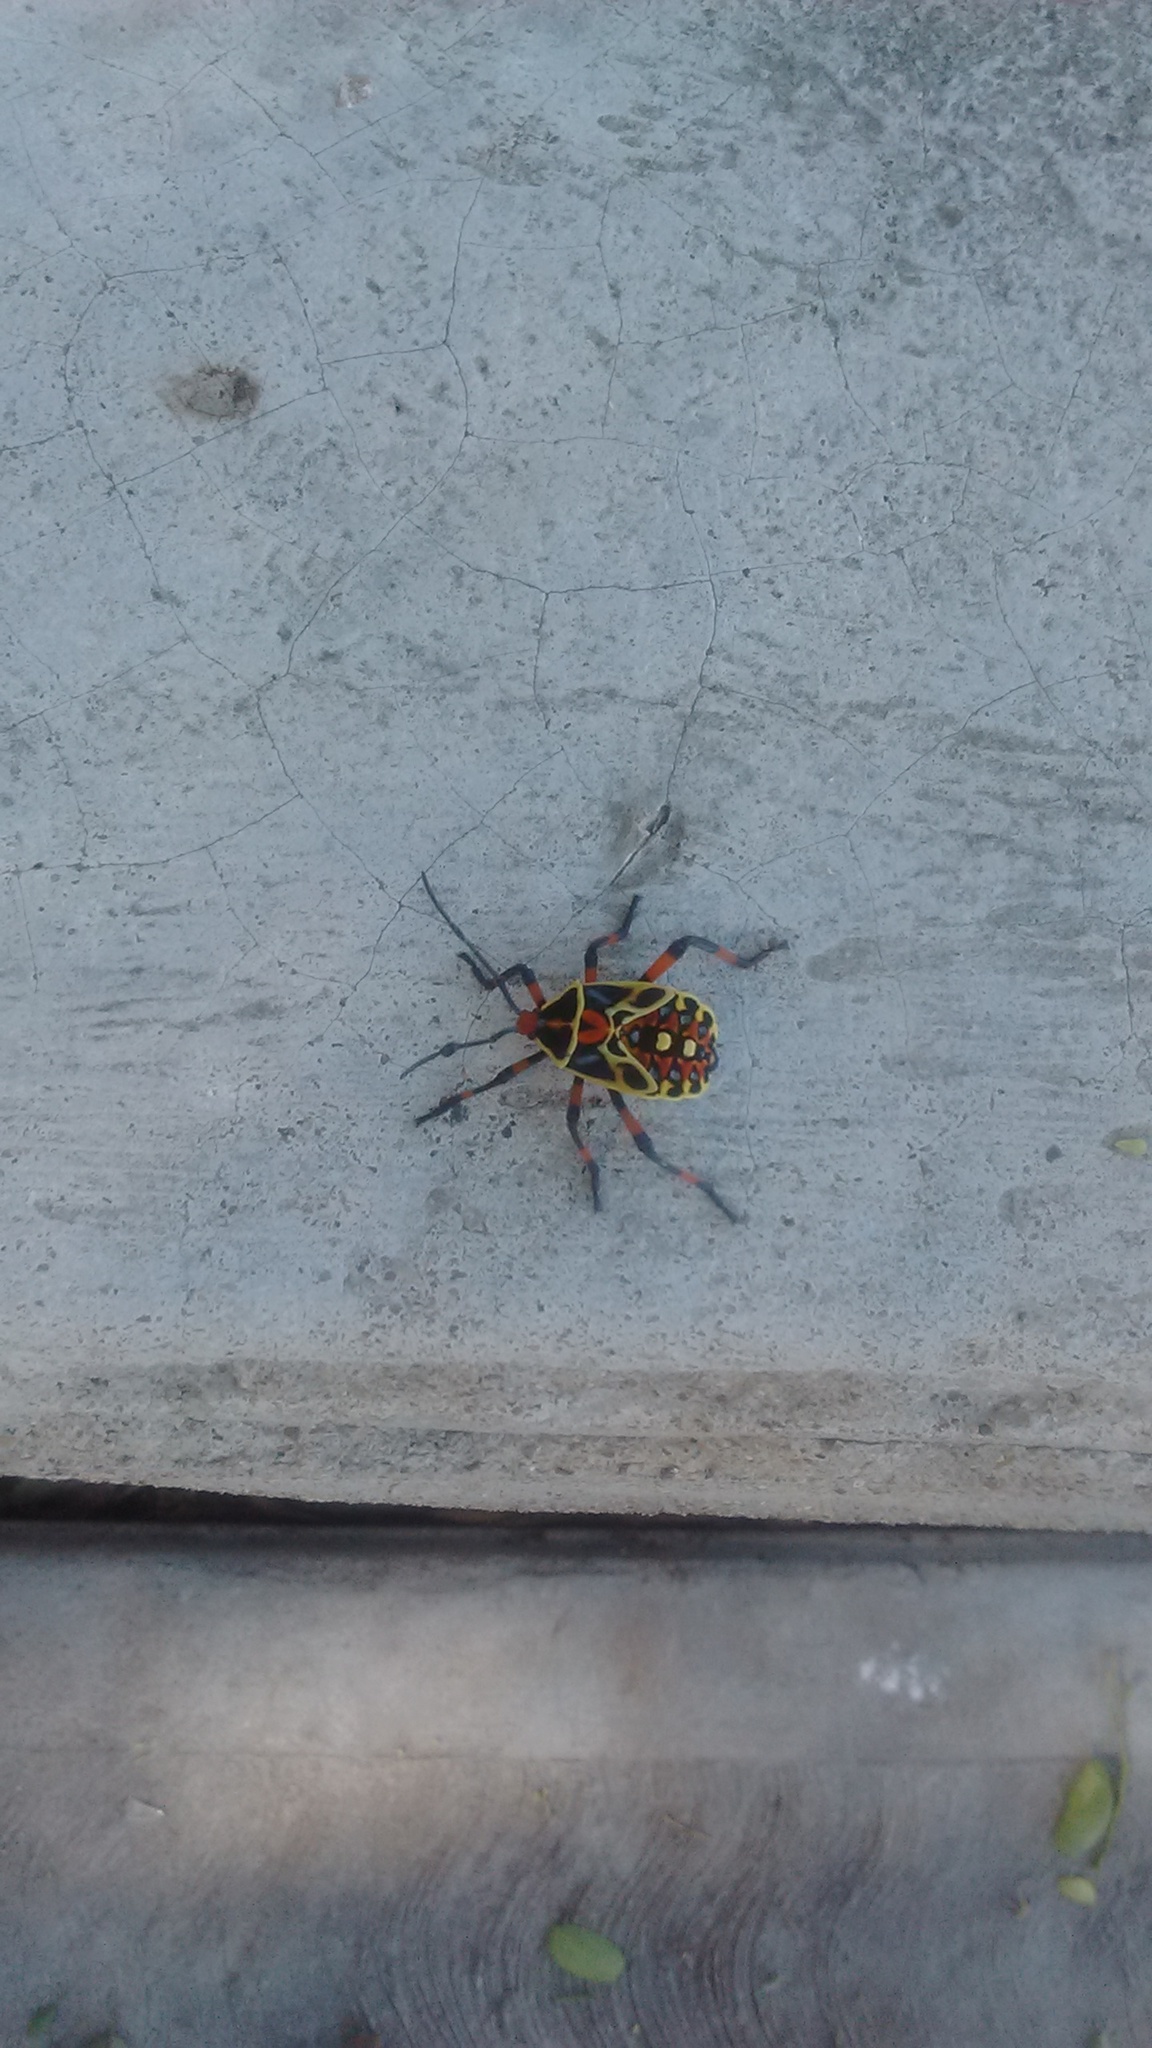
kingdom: Animalia
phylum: Arthropoda
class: Insecta
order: Hemiptera
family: Coreidae
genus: Pachylis
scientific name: Pachylis nervosus
